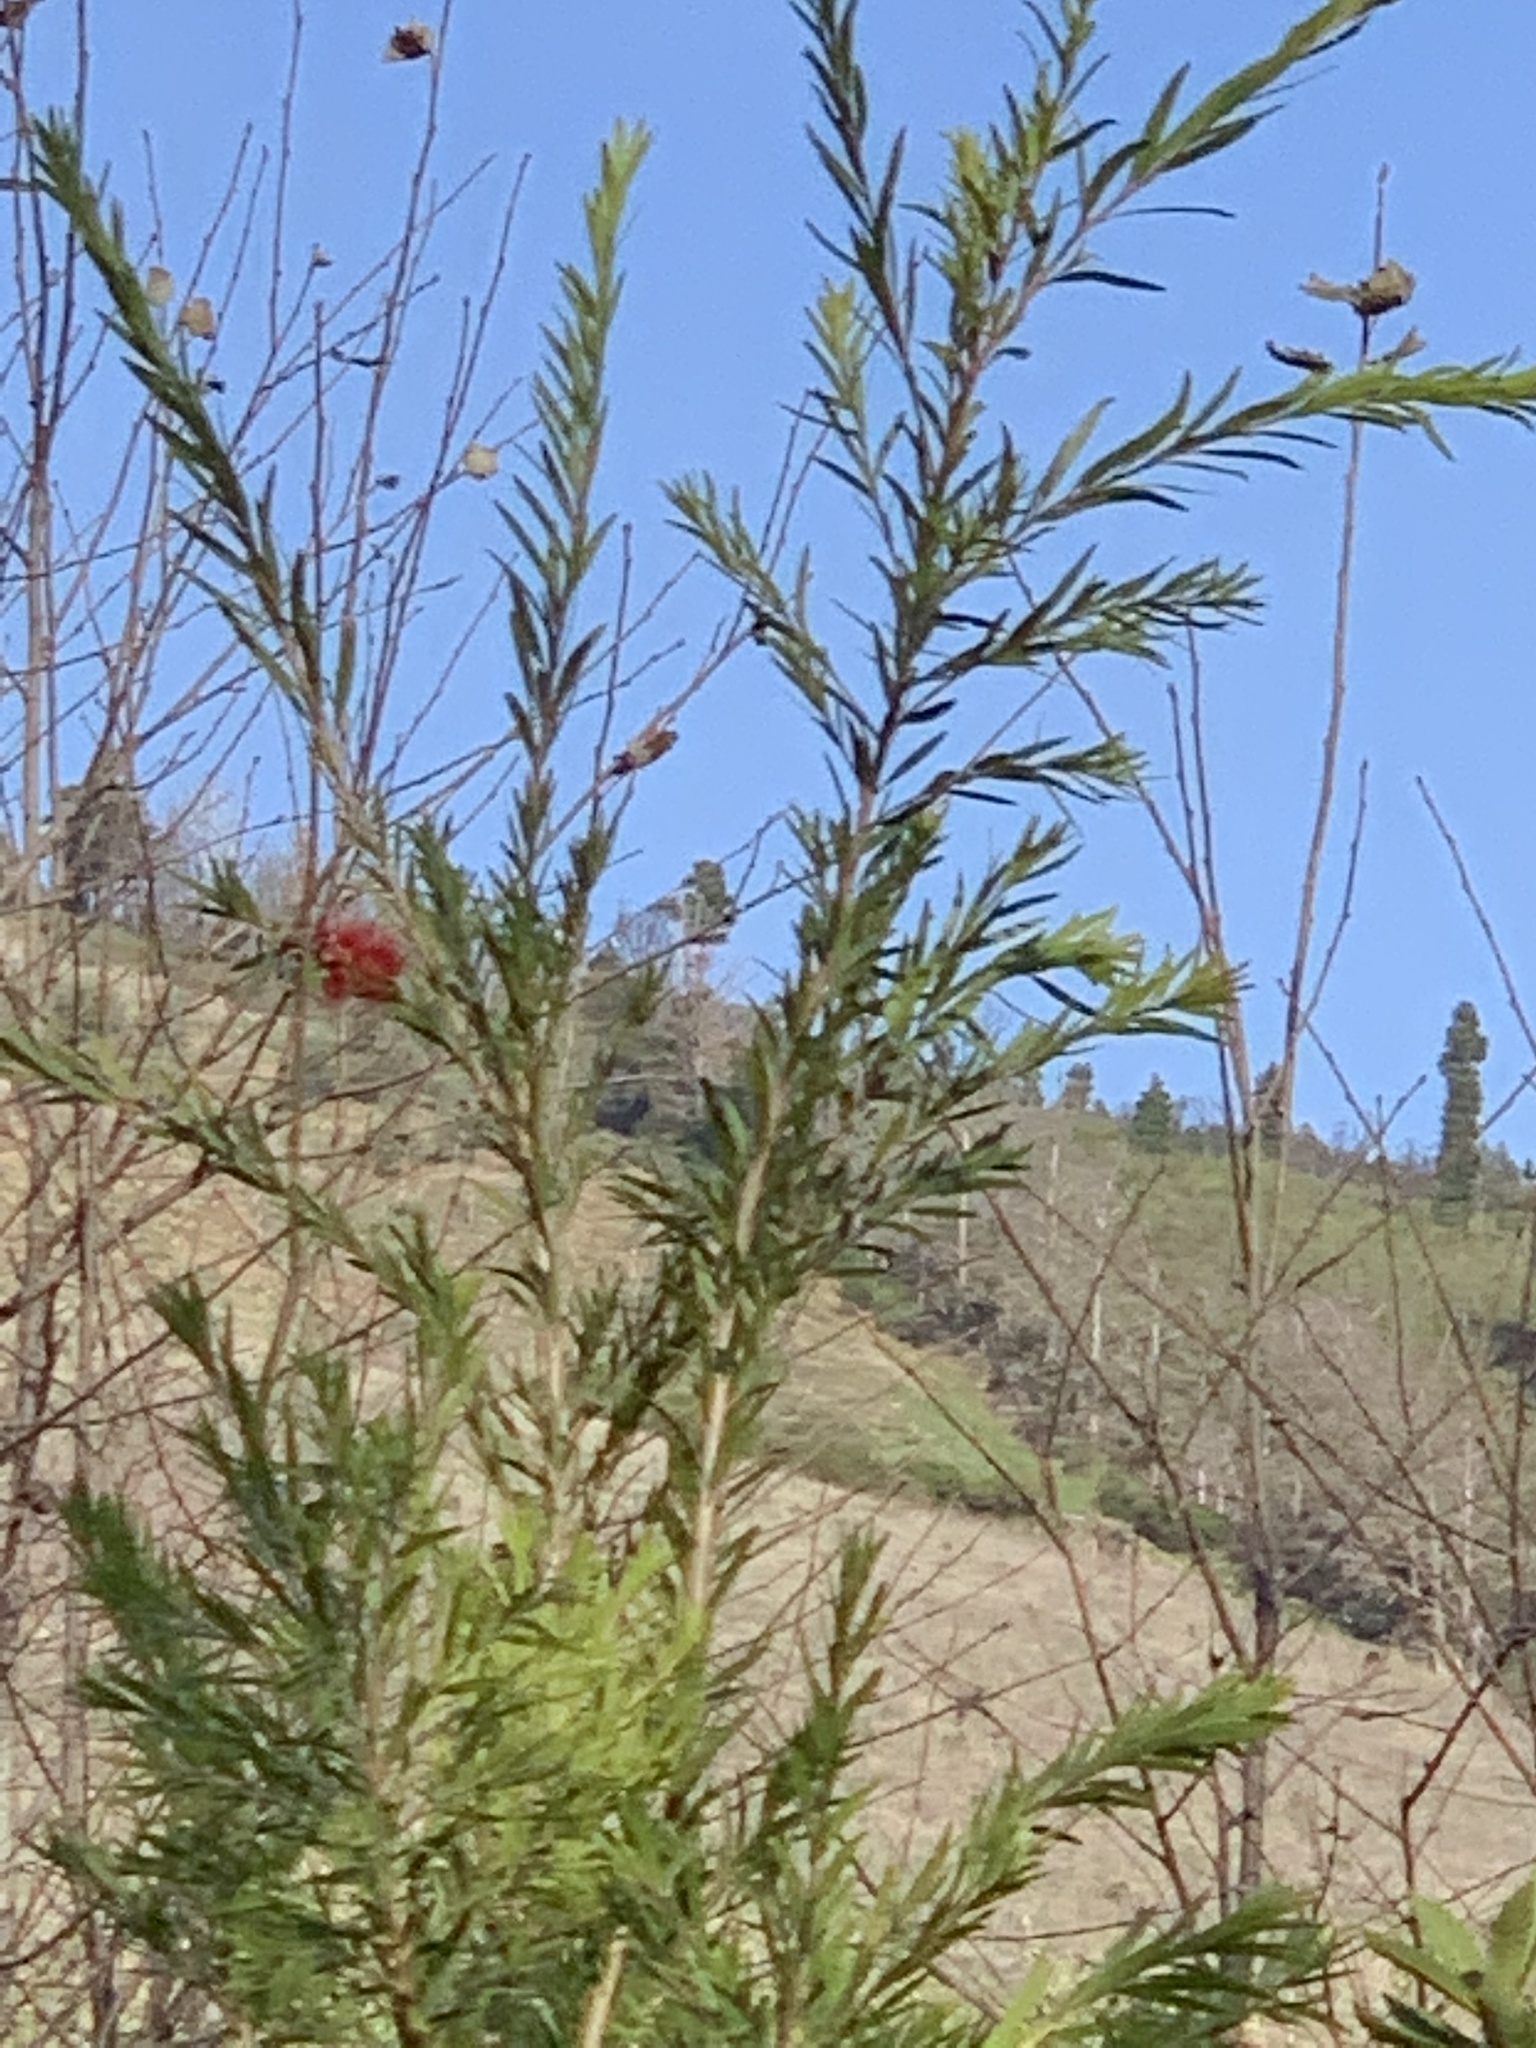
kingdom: Plantae
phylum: Tracheophyta
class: Magnoliopsida
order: Myrtales
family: Myrtaceae
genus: Callistemon
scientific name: Callistemon viminalis
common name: Drooping bottlebrush
